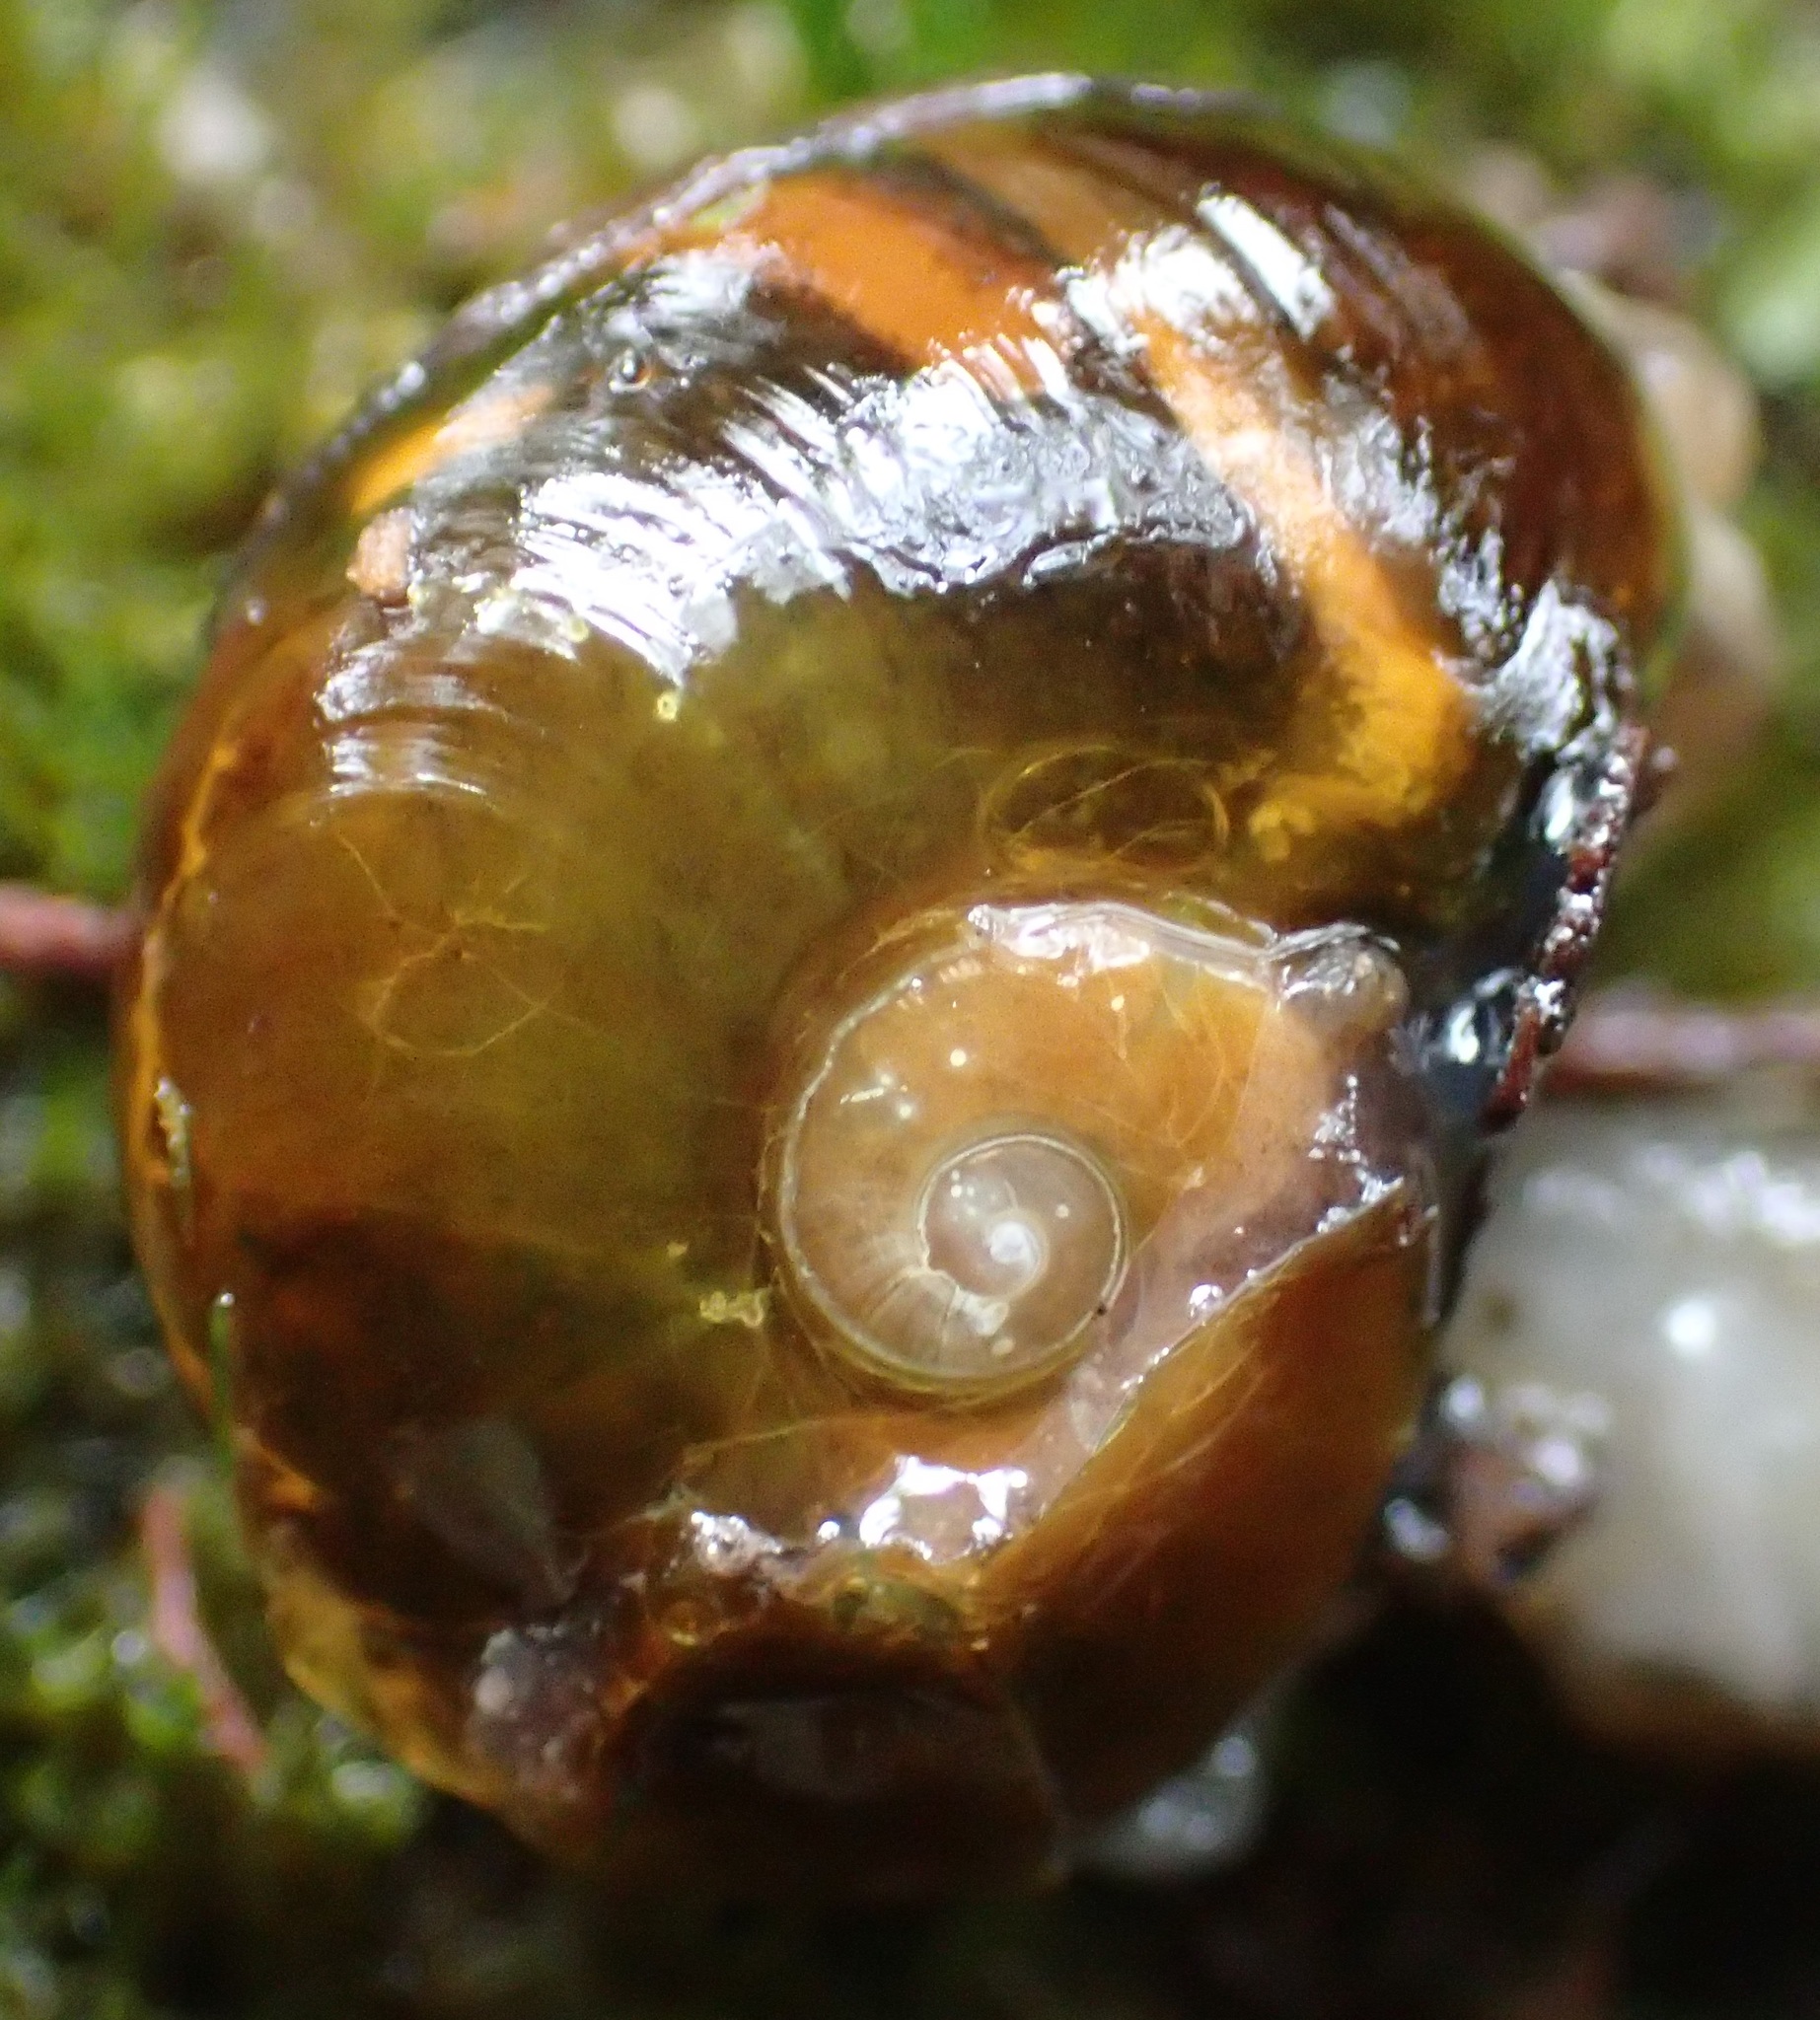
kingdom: Animalia
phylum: Mollusca
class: Gastropoda
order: Stylommatophora
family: Helicarionidae
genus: Helicarion
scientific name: Helicarion cuvieri
